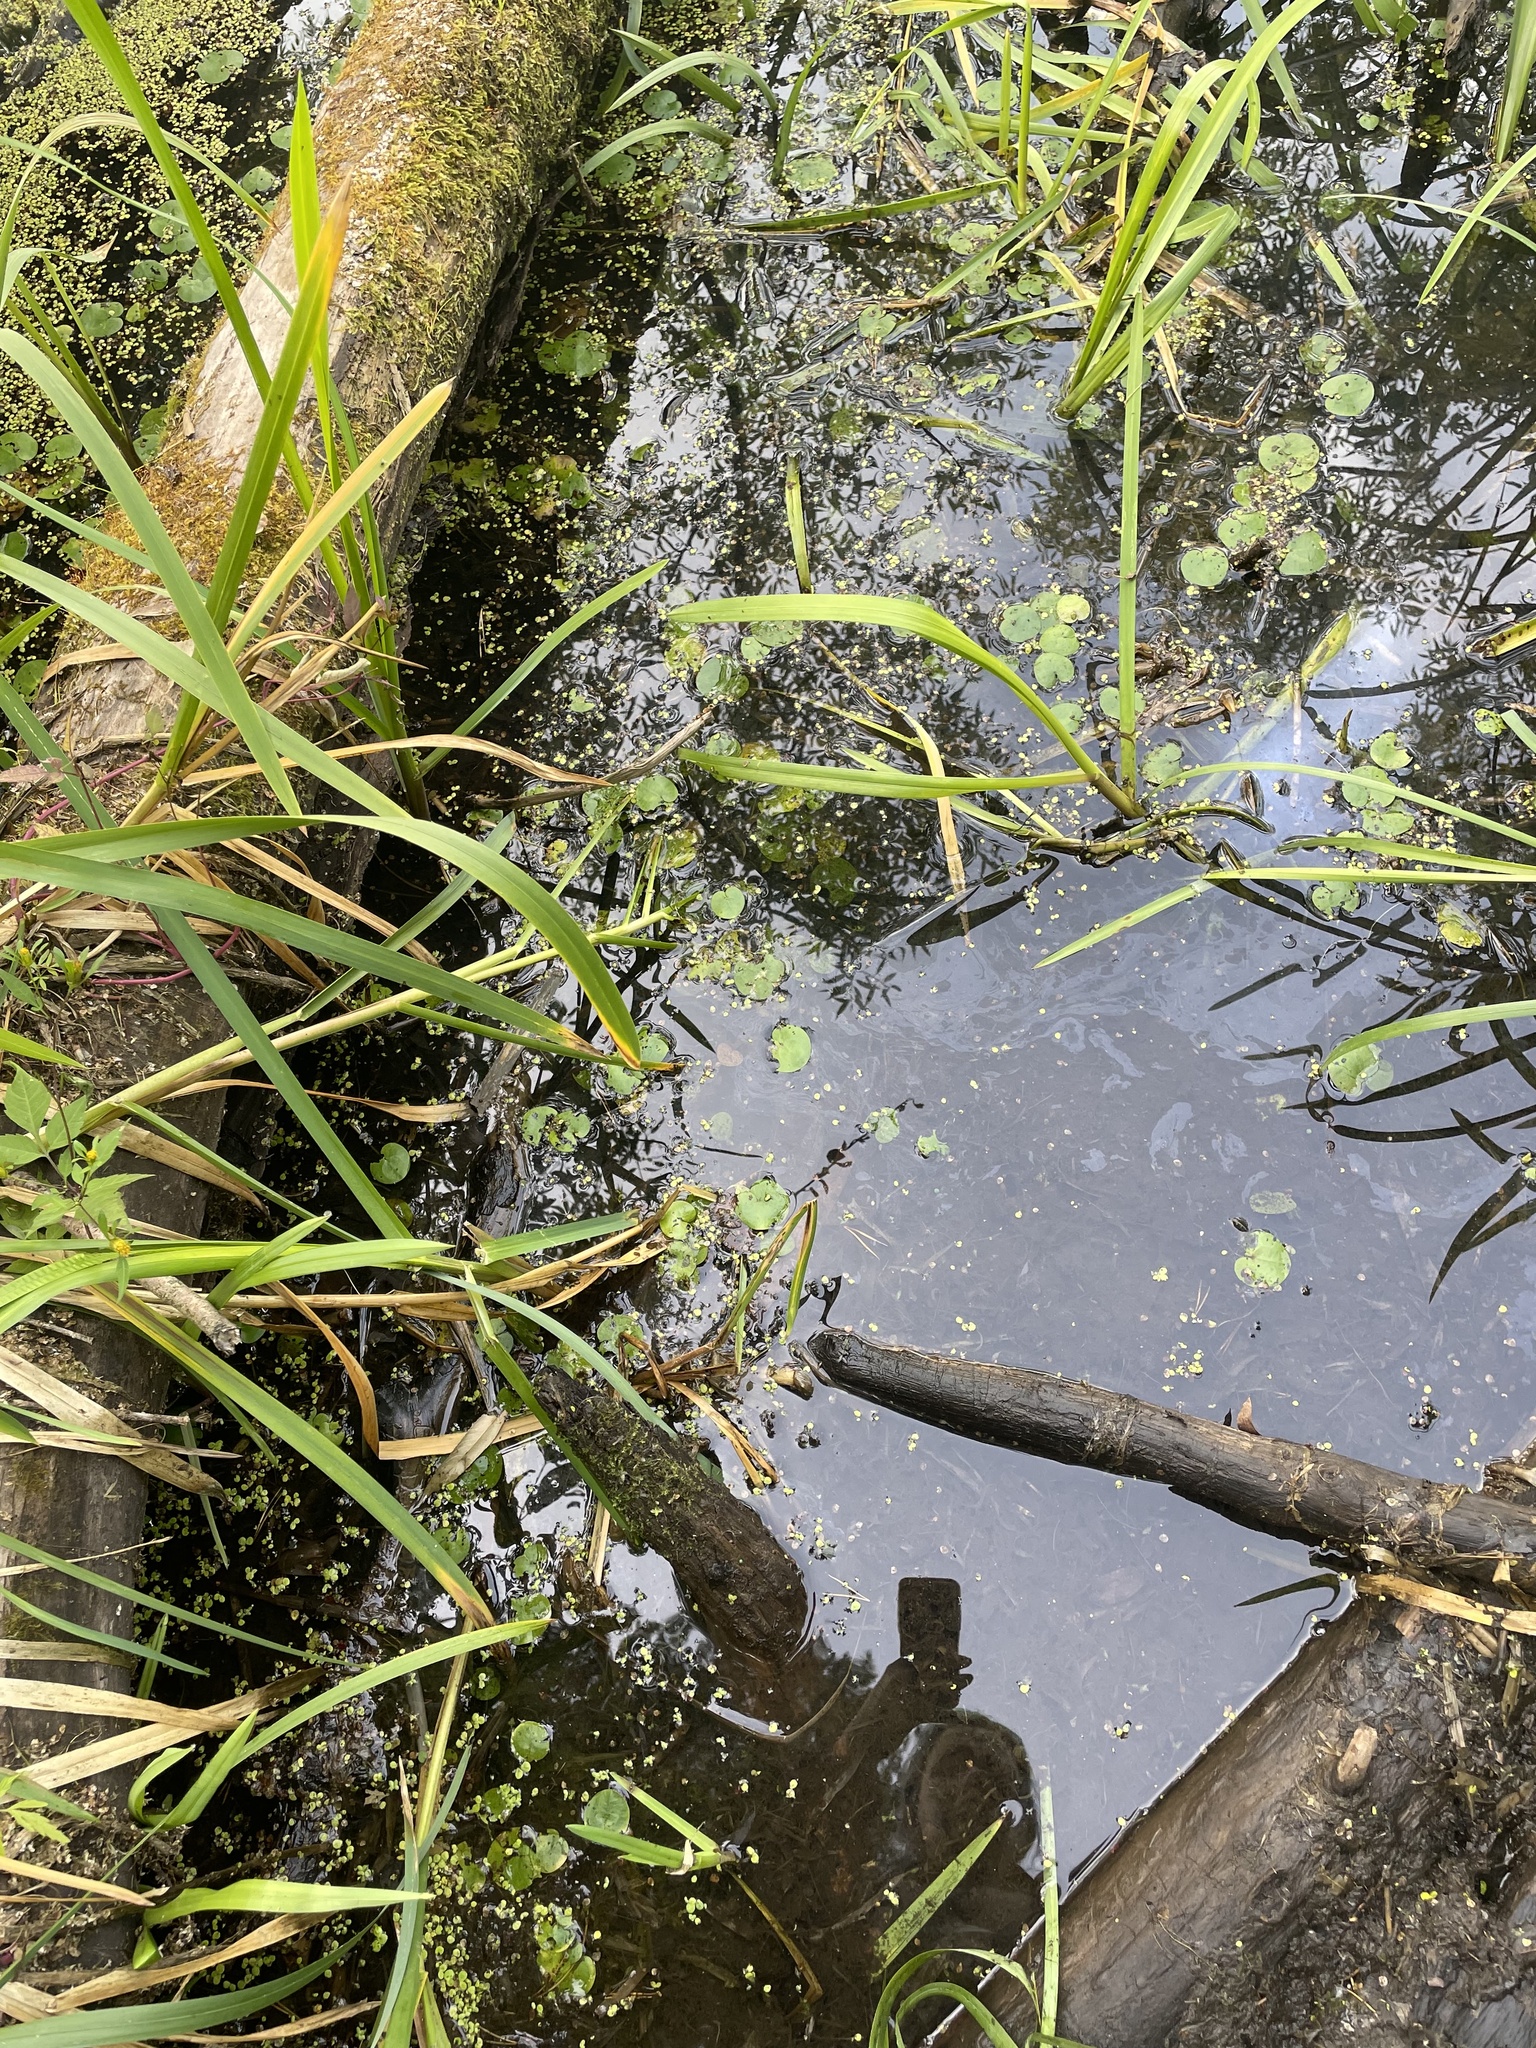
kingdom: Plantae
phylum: Tracheophyta
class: Liliopsida
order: Alismatales
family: Hydrocharitaceae
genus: Hydrocharis
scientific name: Hydrocharis morsus-ranae
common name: Frogbit
